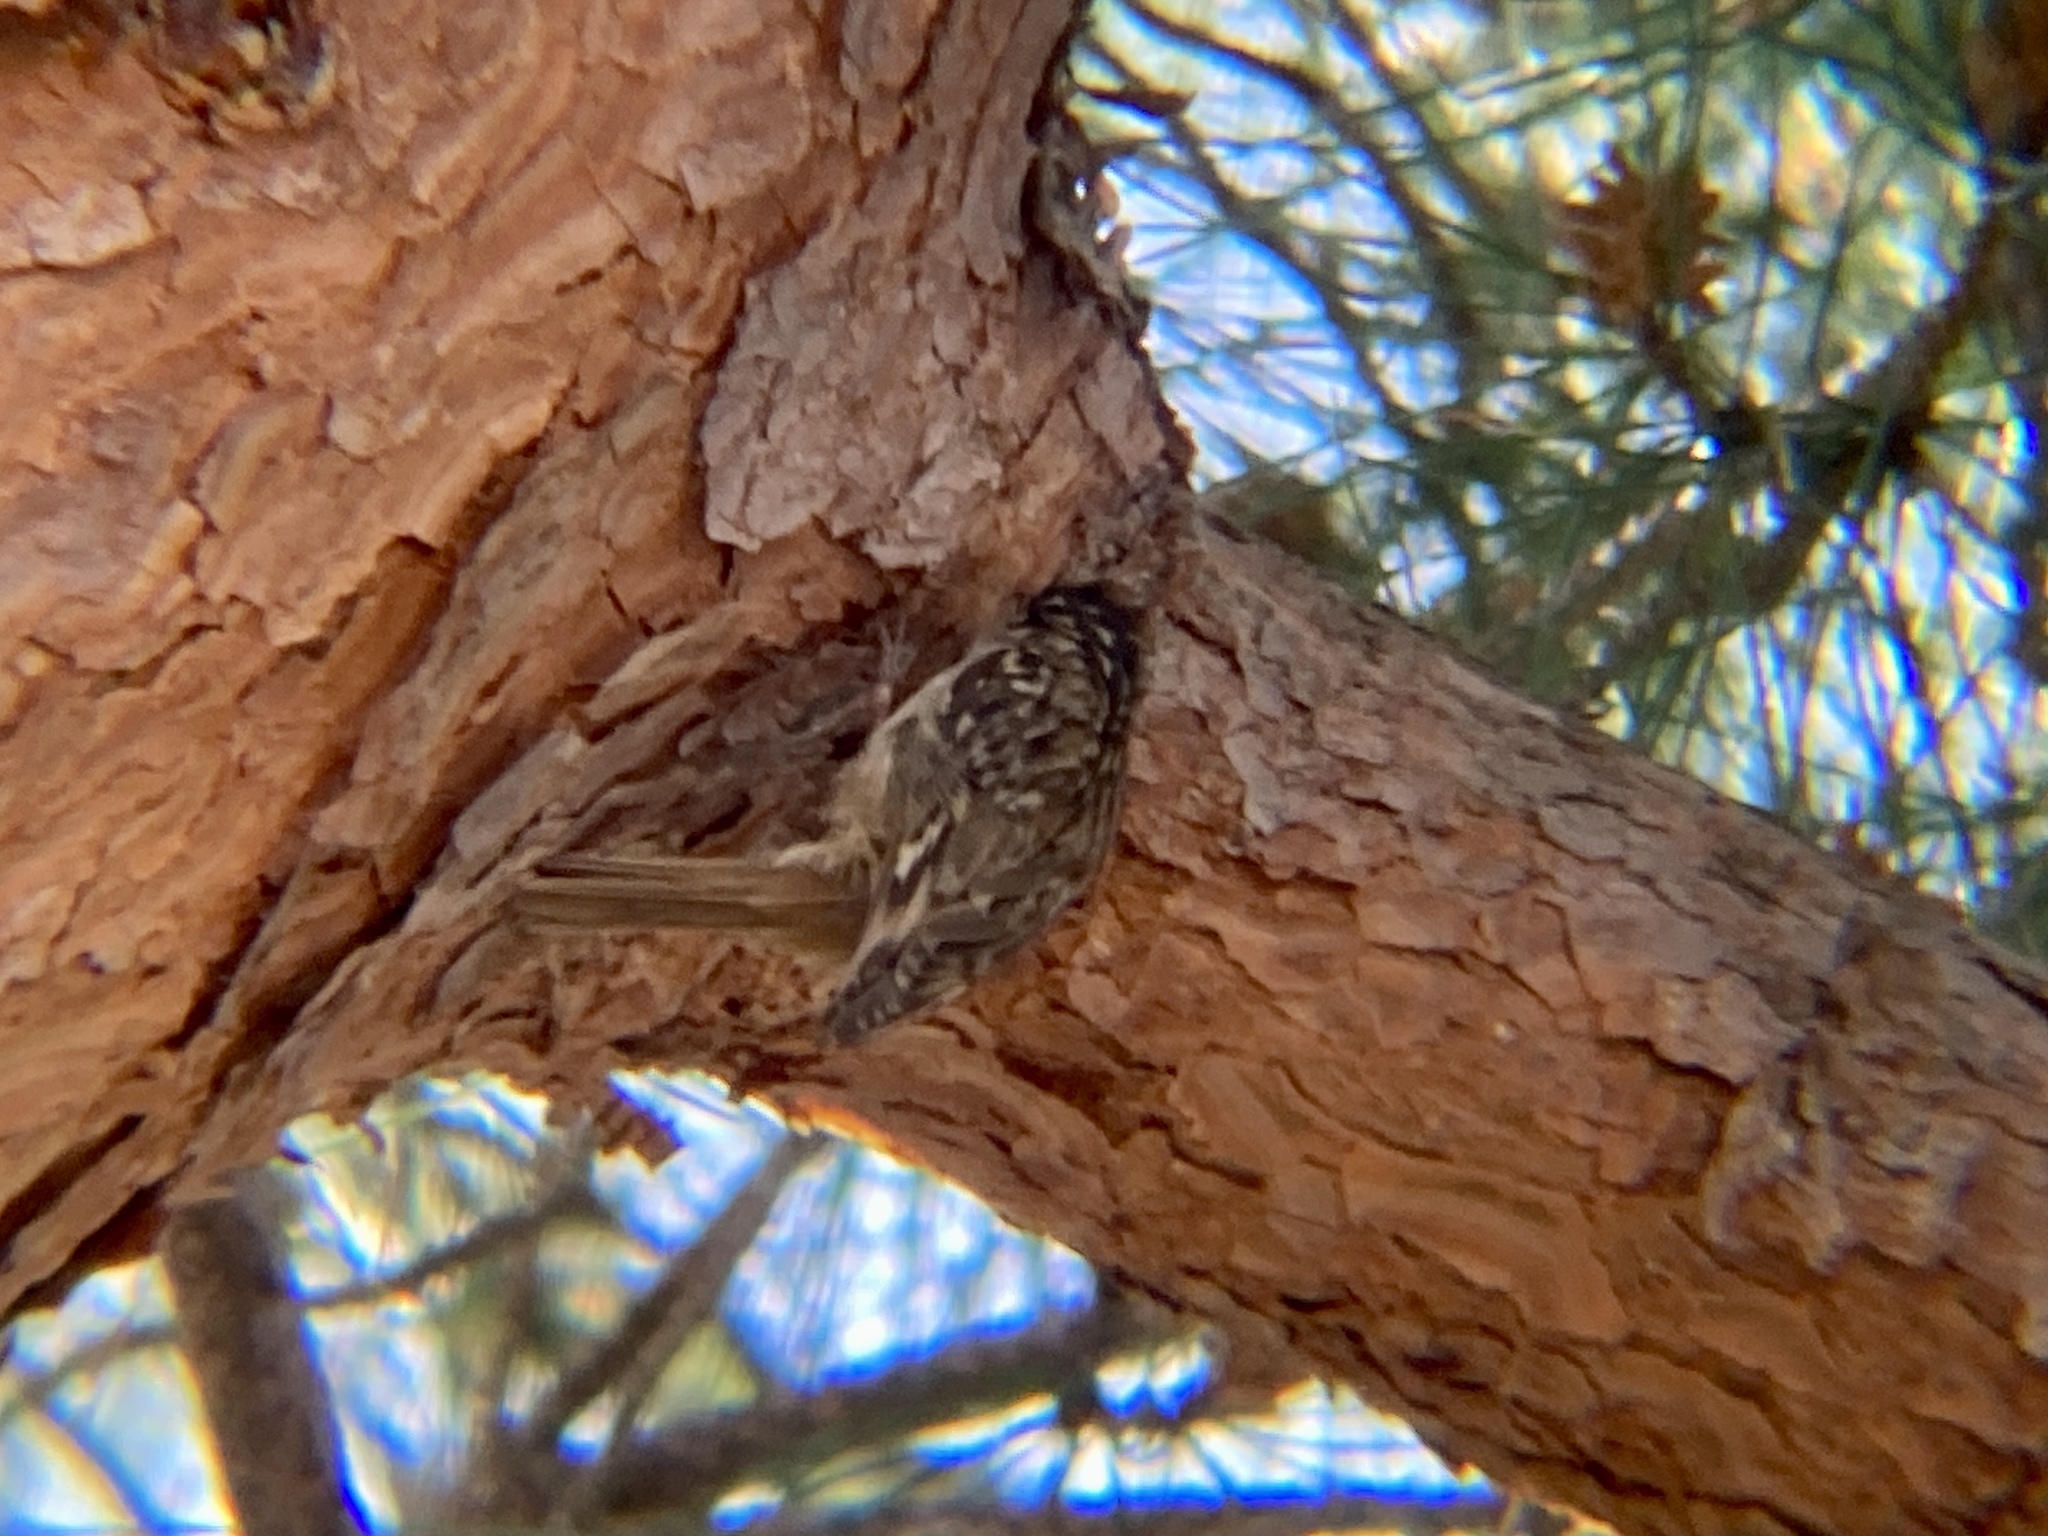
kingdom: Animalia
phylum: Chordata
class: Aves
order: Passeriformes
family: Certhiidae
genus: Certhia
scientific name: Certhia brachydactyla
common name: Short-toed treecreeper
